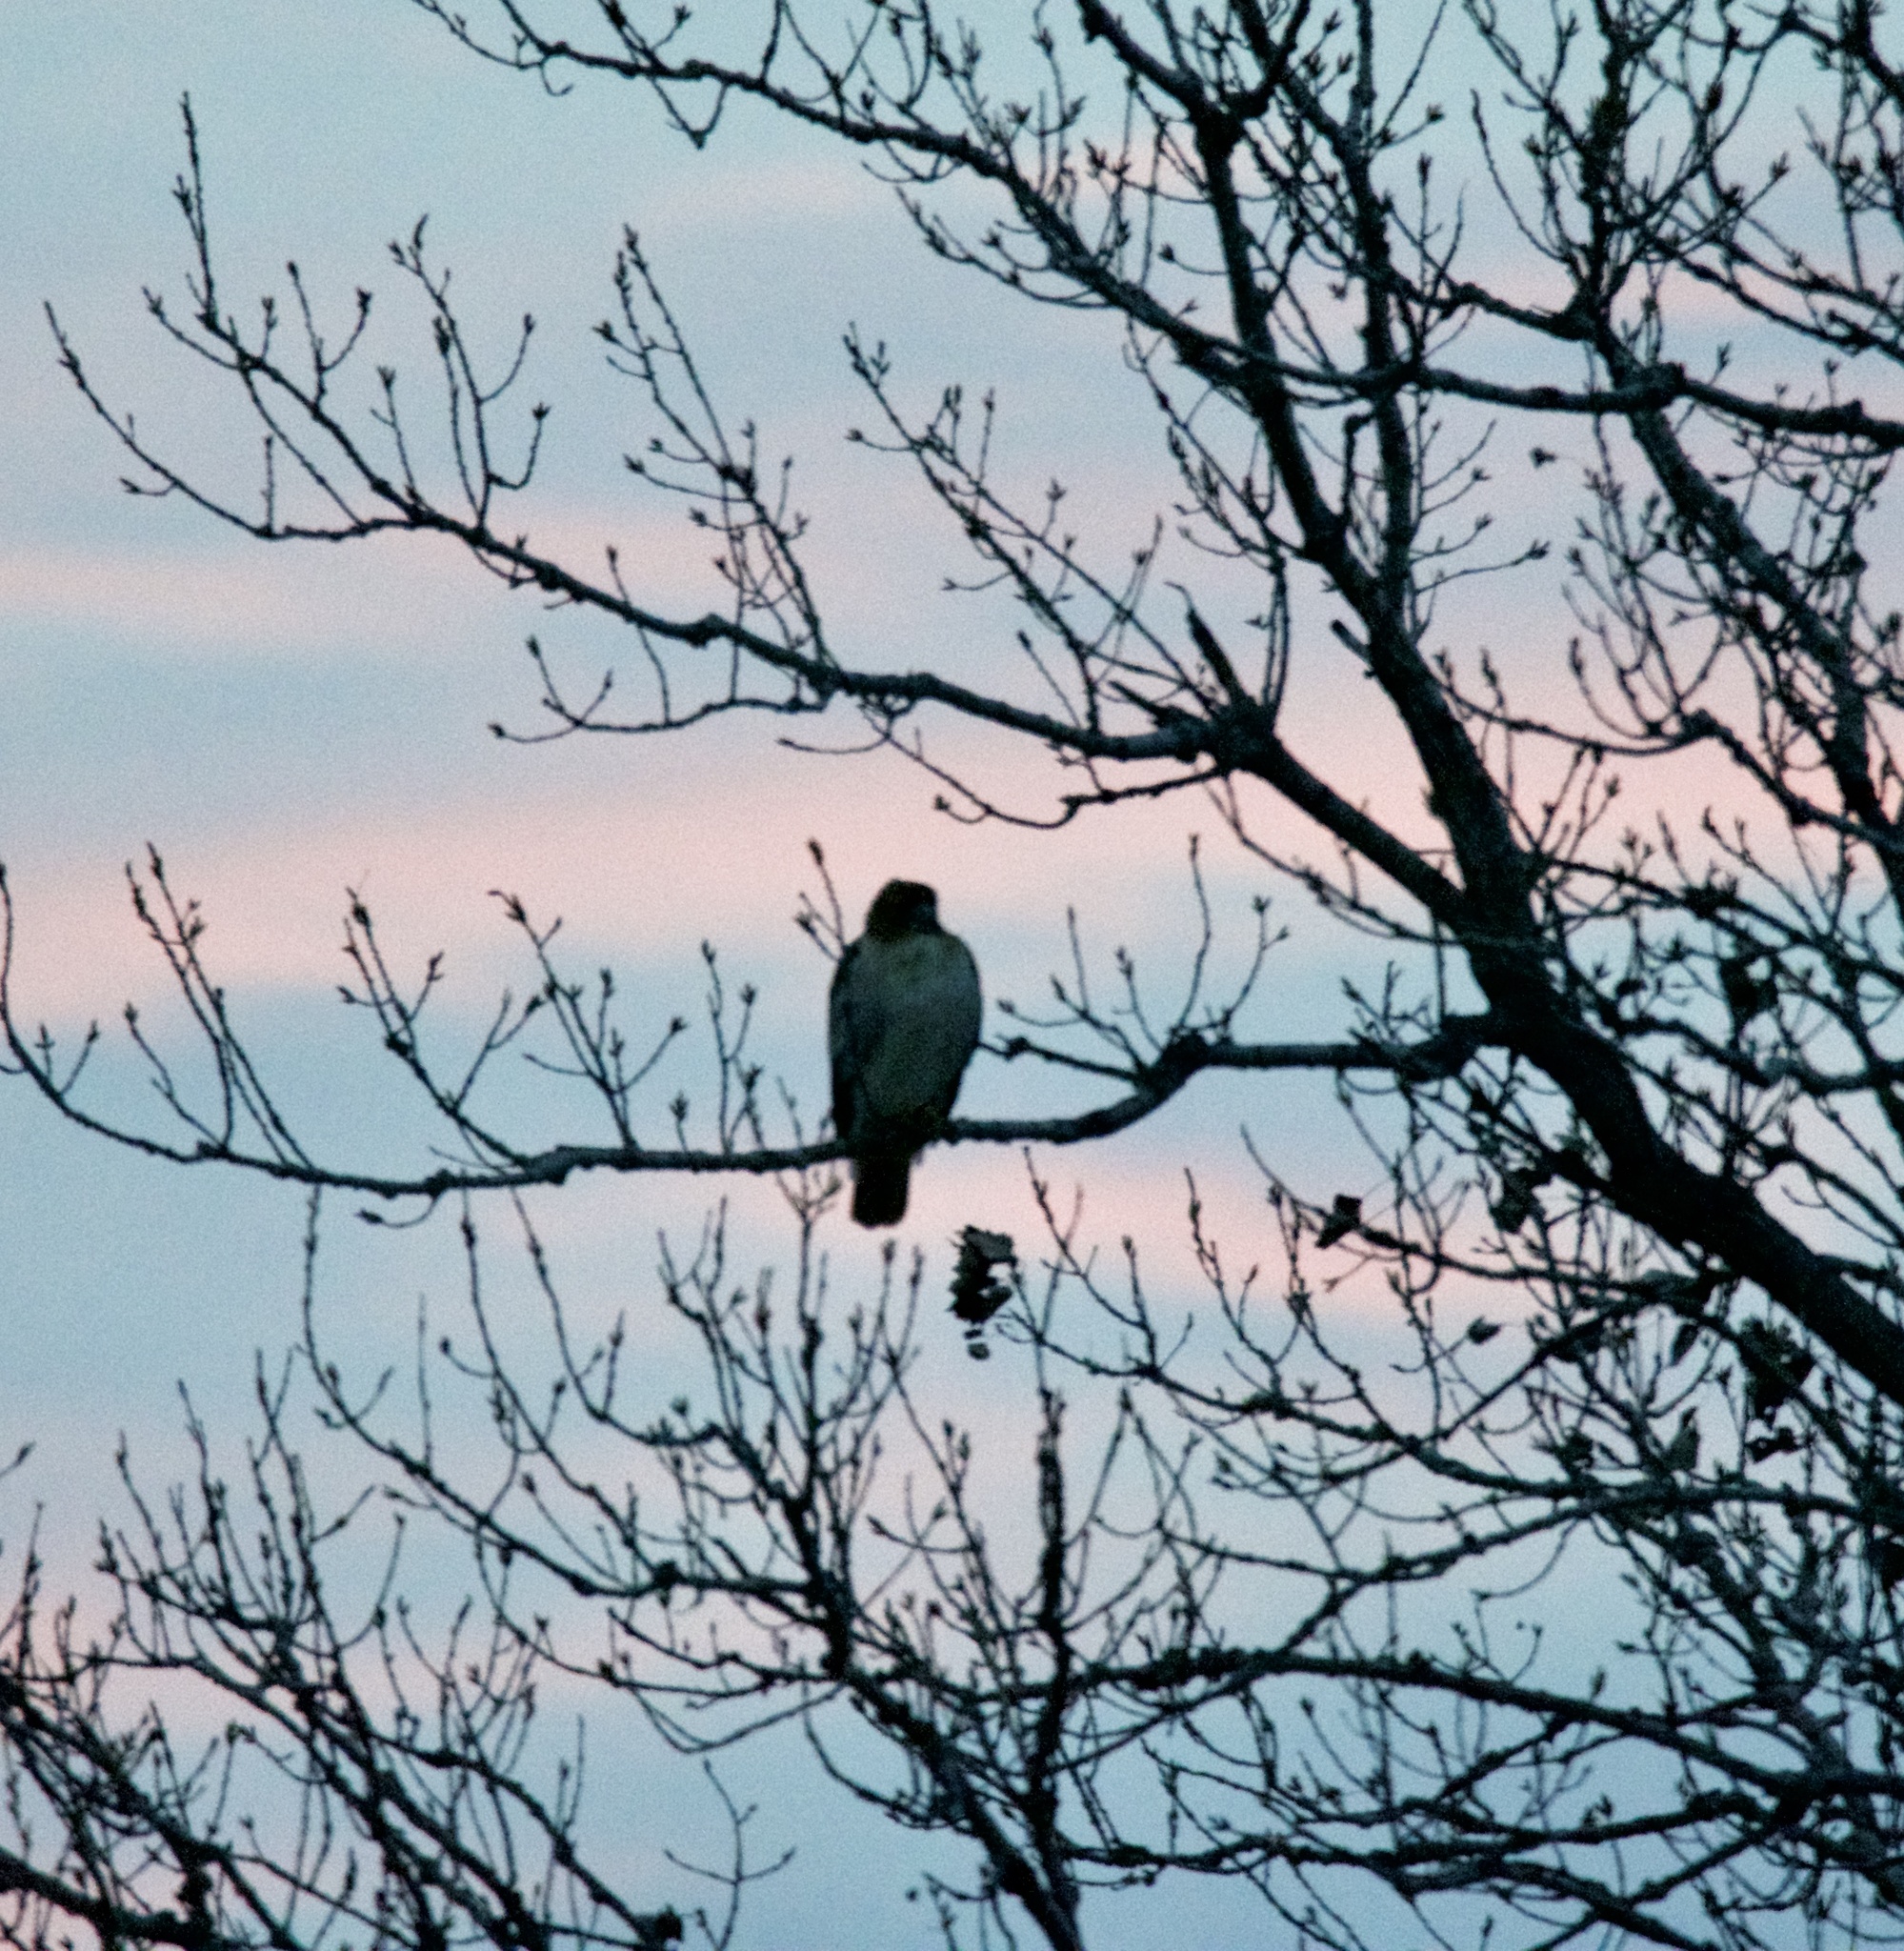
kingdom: Animalia
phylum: Chordata
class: Aves
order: Accipitriformes
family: Accipitridae
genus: Buteo
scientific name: Buteo jamaicensis
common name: Red-tailed hawk
